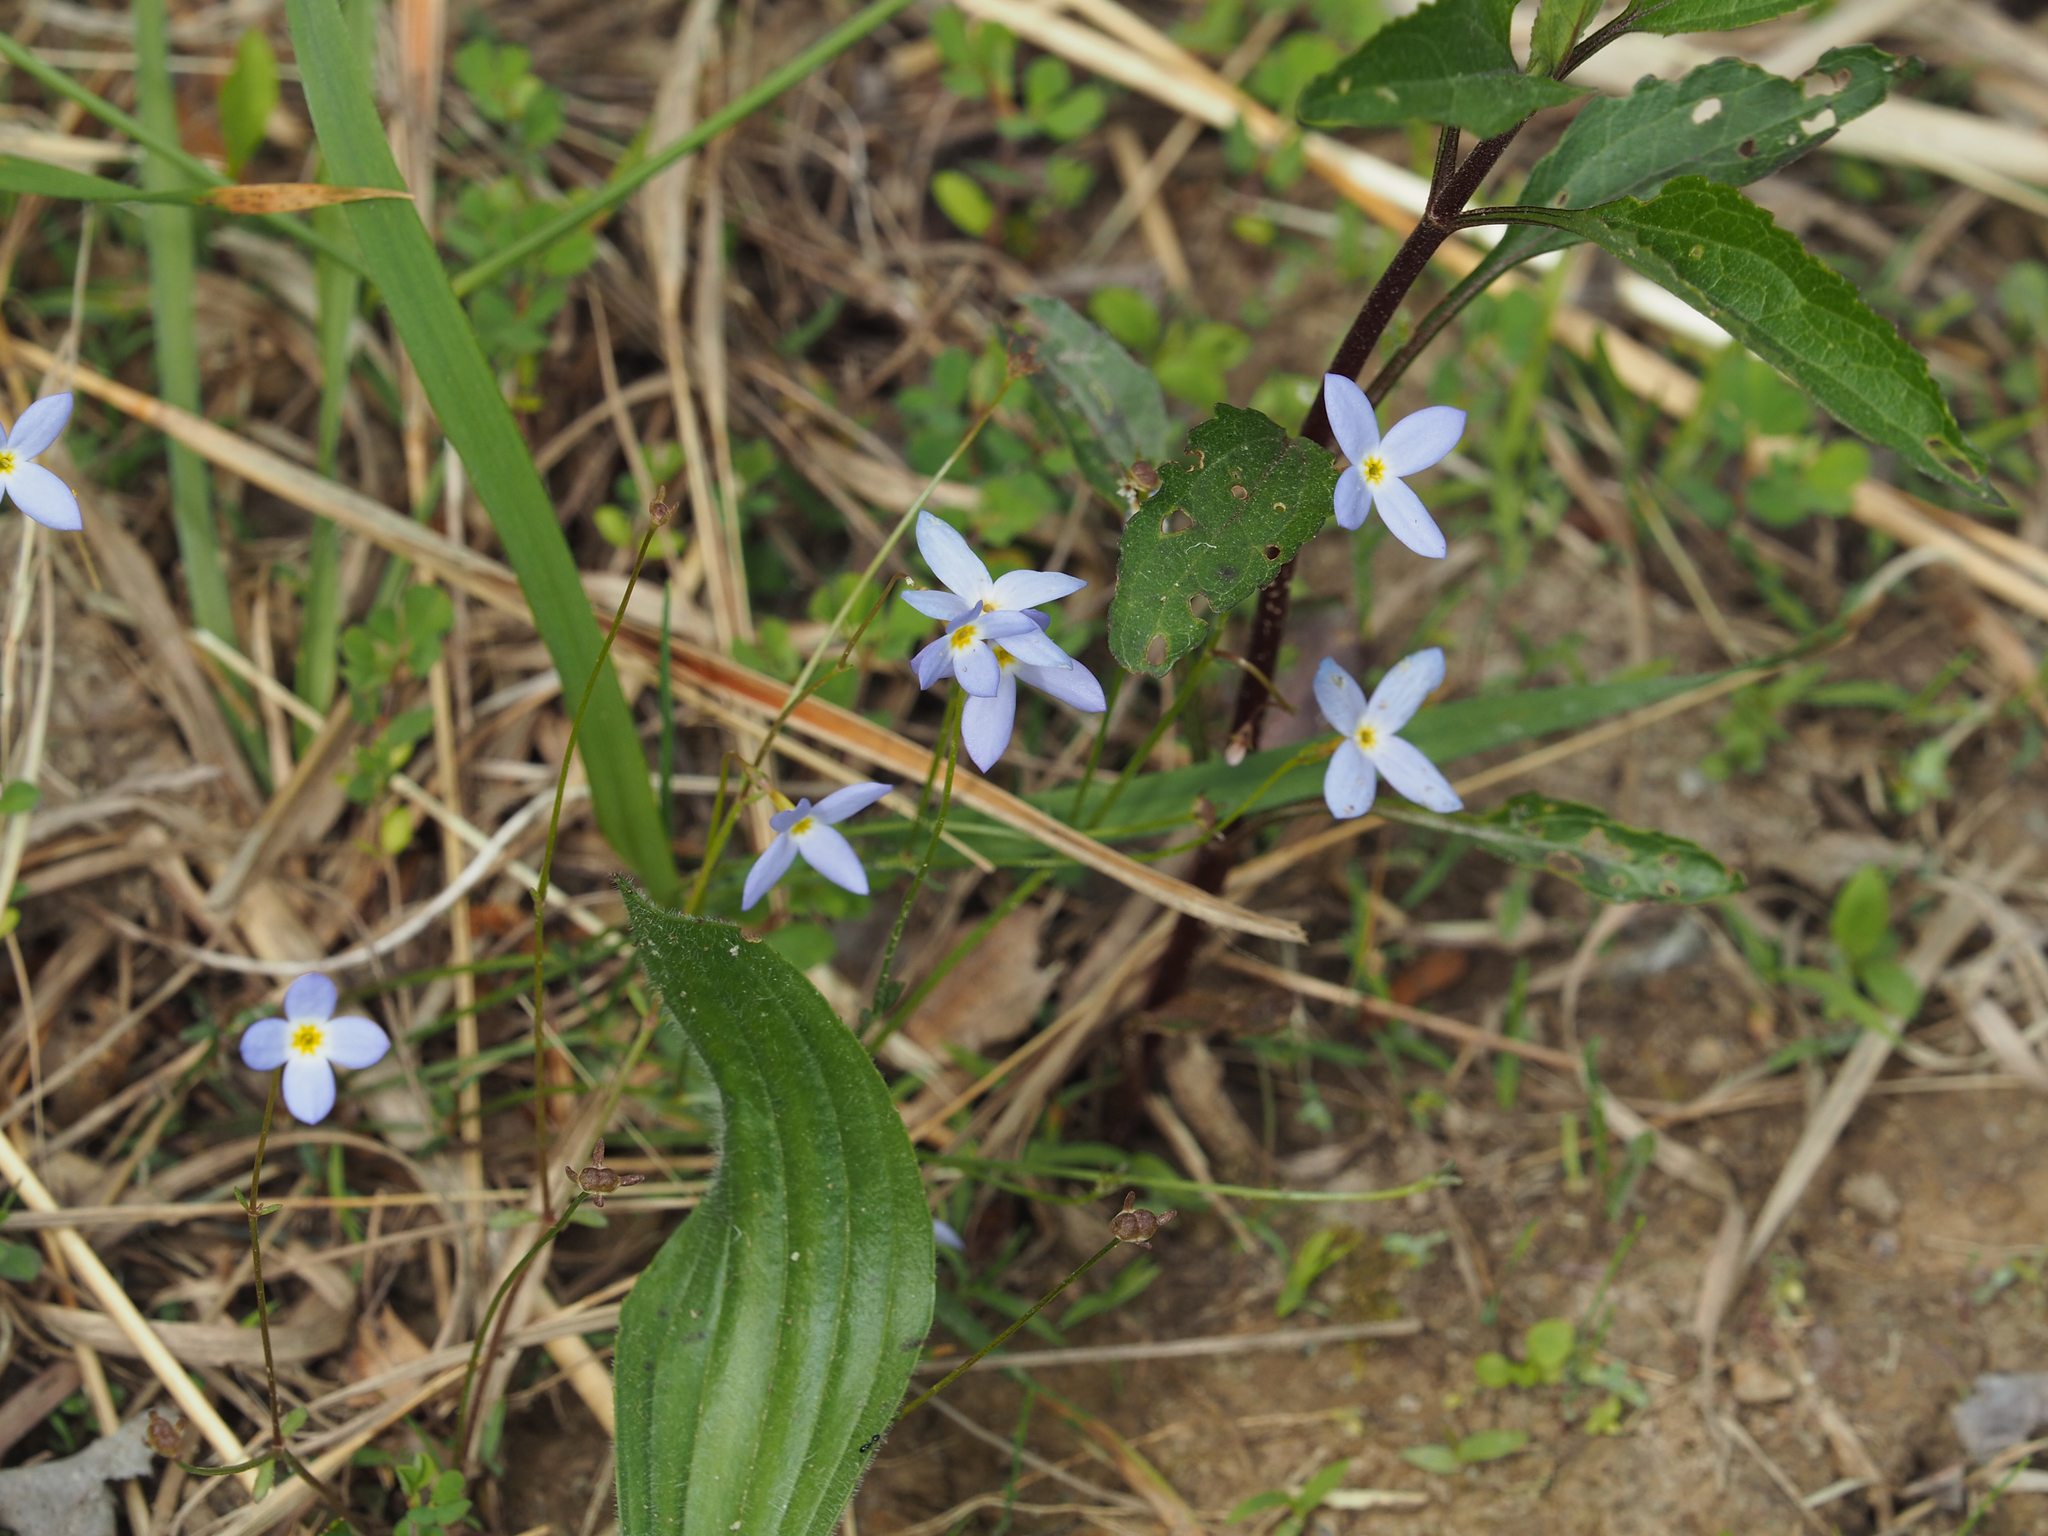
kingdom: Plantae
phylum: Tracheophyta
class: Magnoliopsida
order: Gentianales
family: Rubiaceae
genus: Houstonia
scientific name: Houstonia caerulea
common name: Bluets
